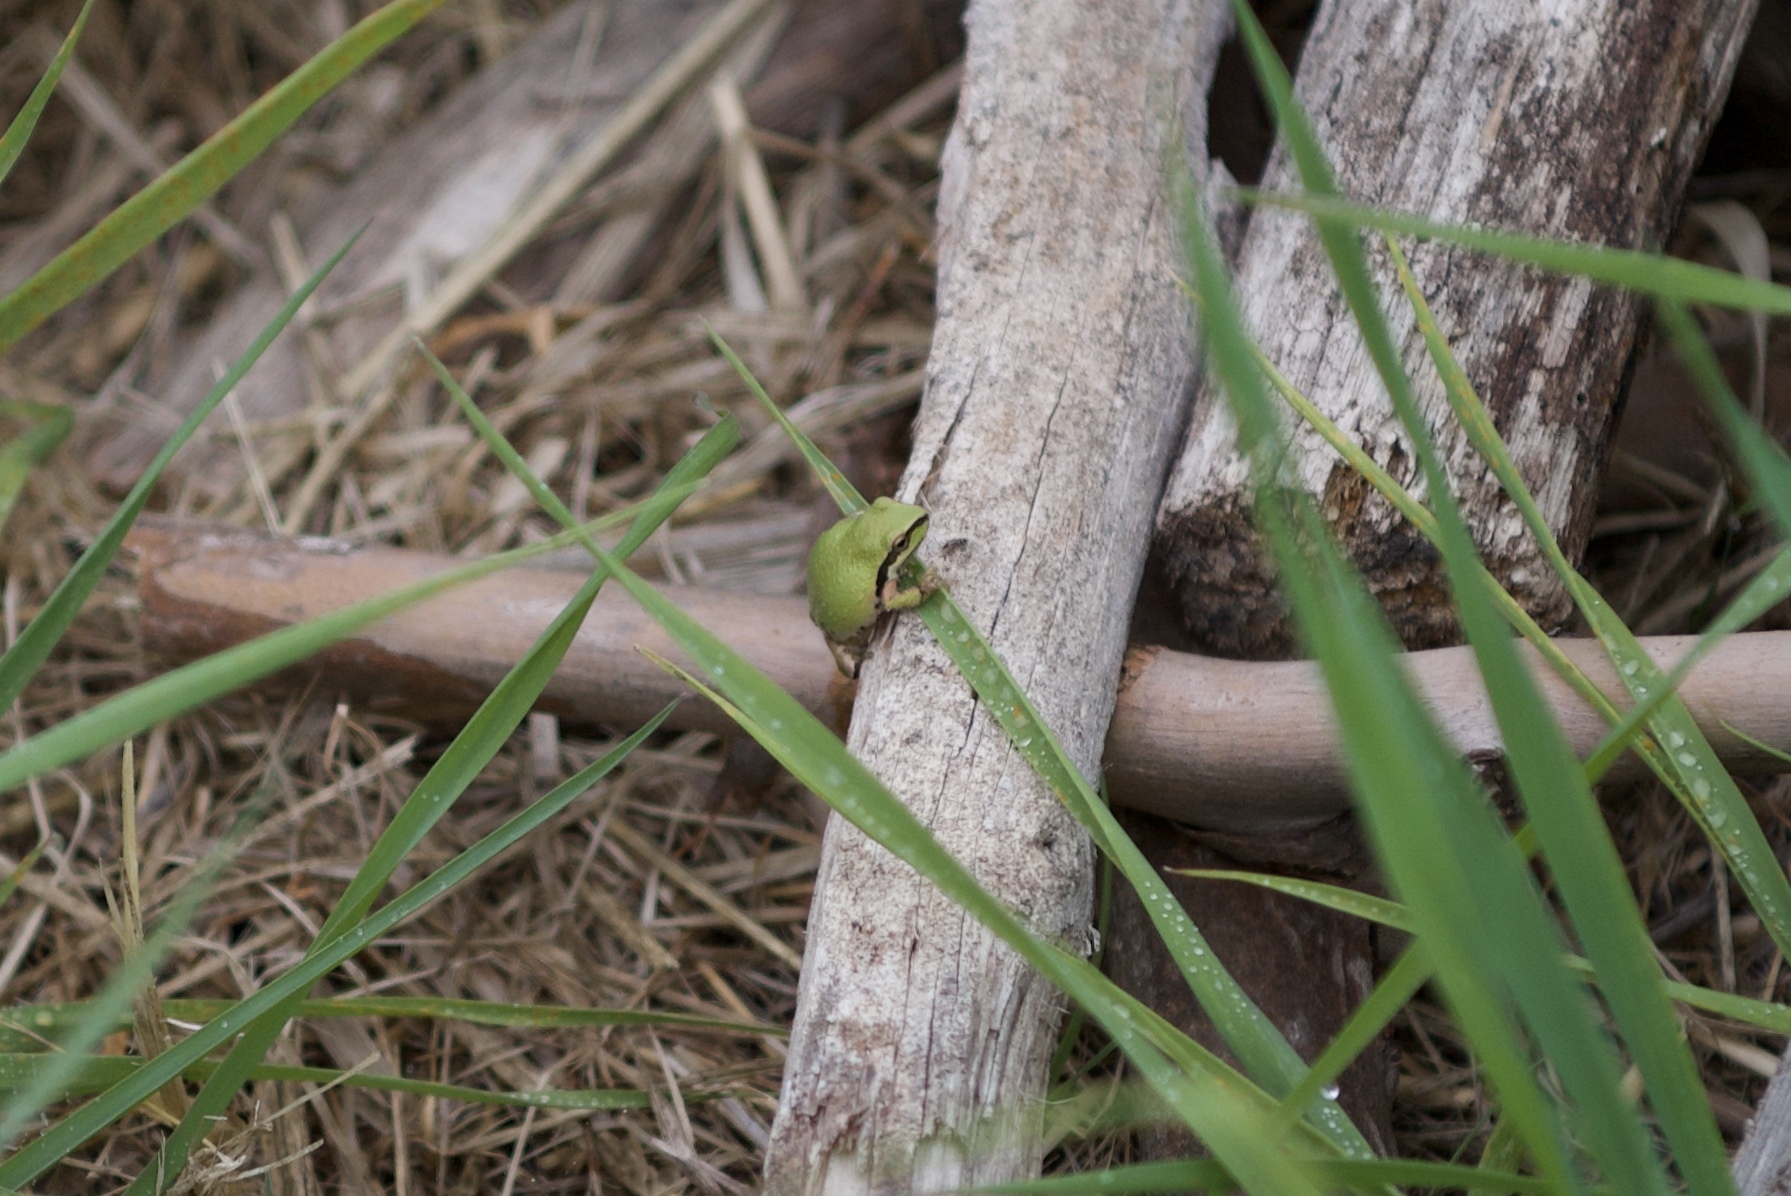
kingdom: Animalia
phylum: Chordata
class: Amphibia
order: Anura
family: Hylidae
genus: Pseudacris
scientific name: Pseudacris regilla
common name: Pacific chorus frog
